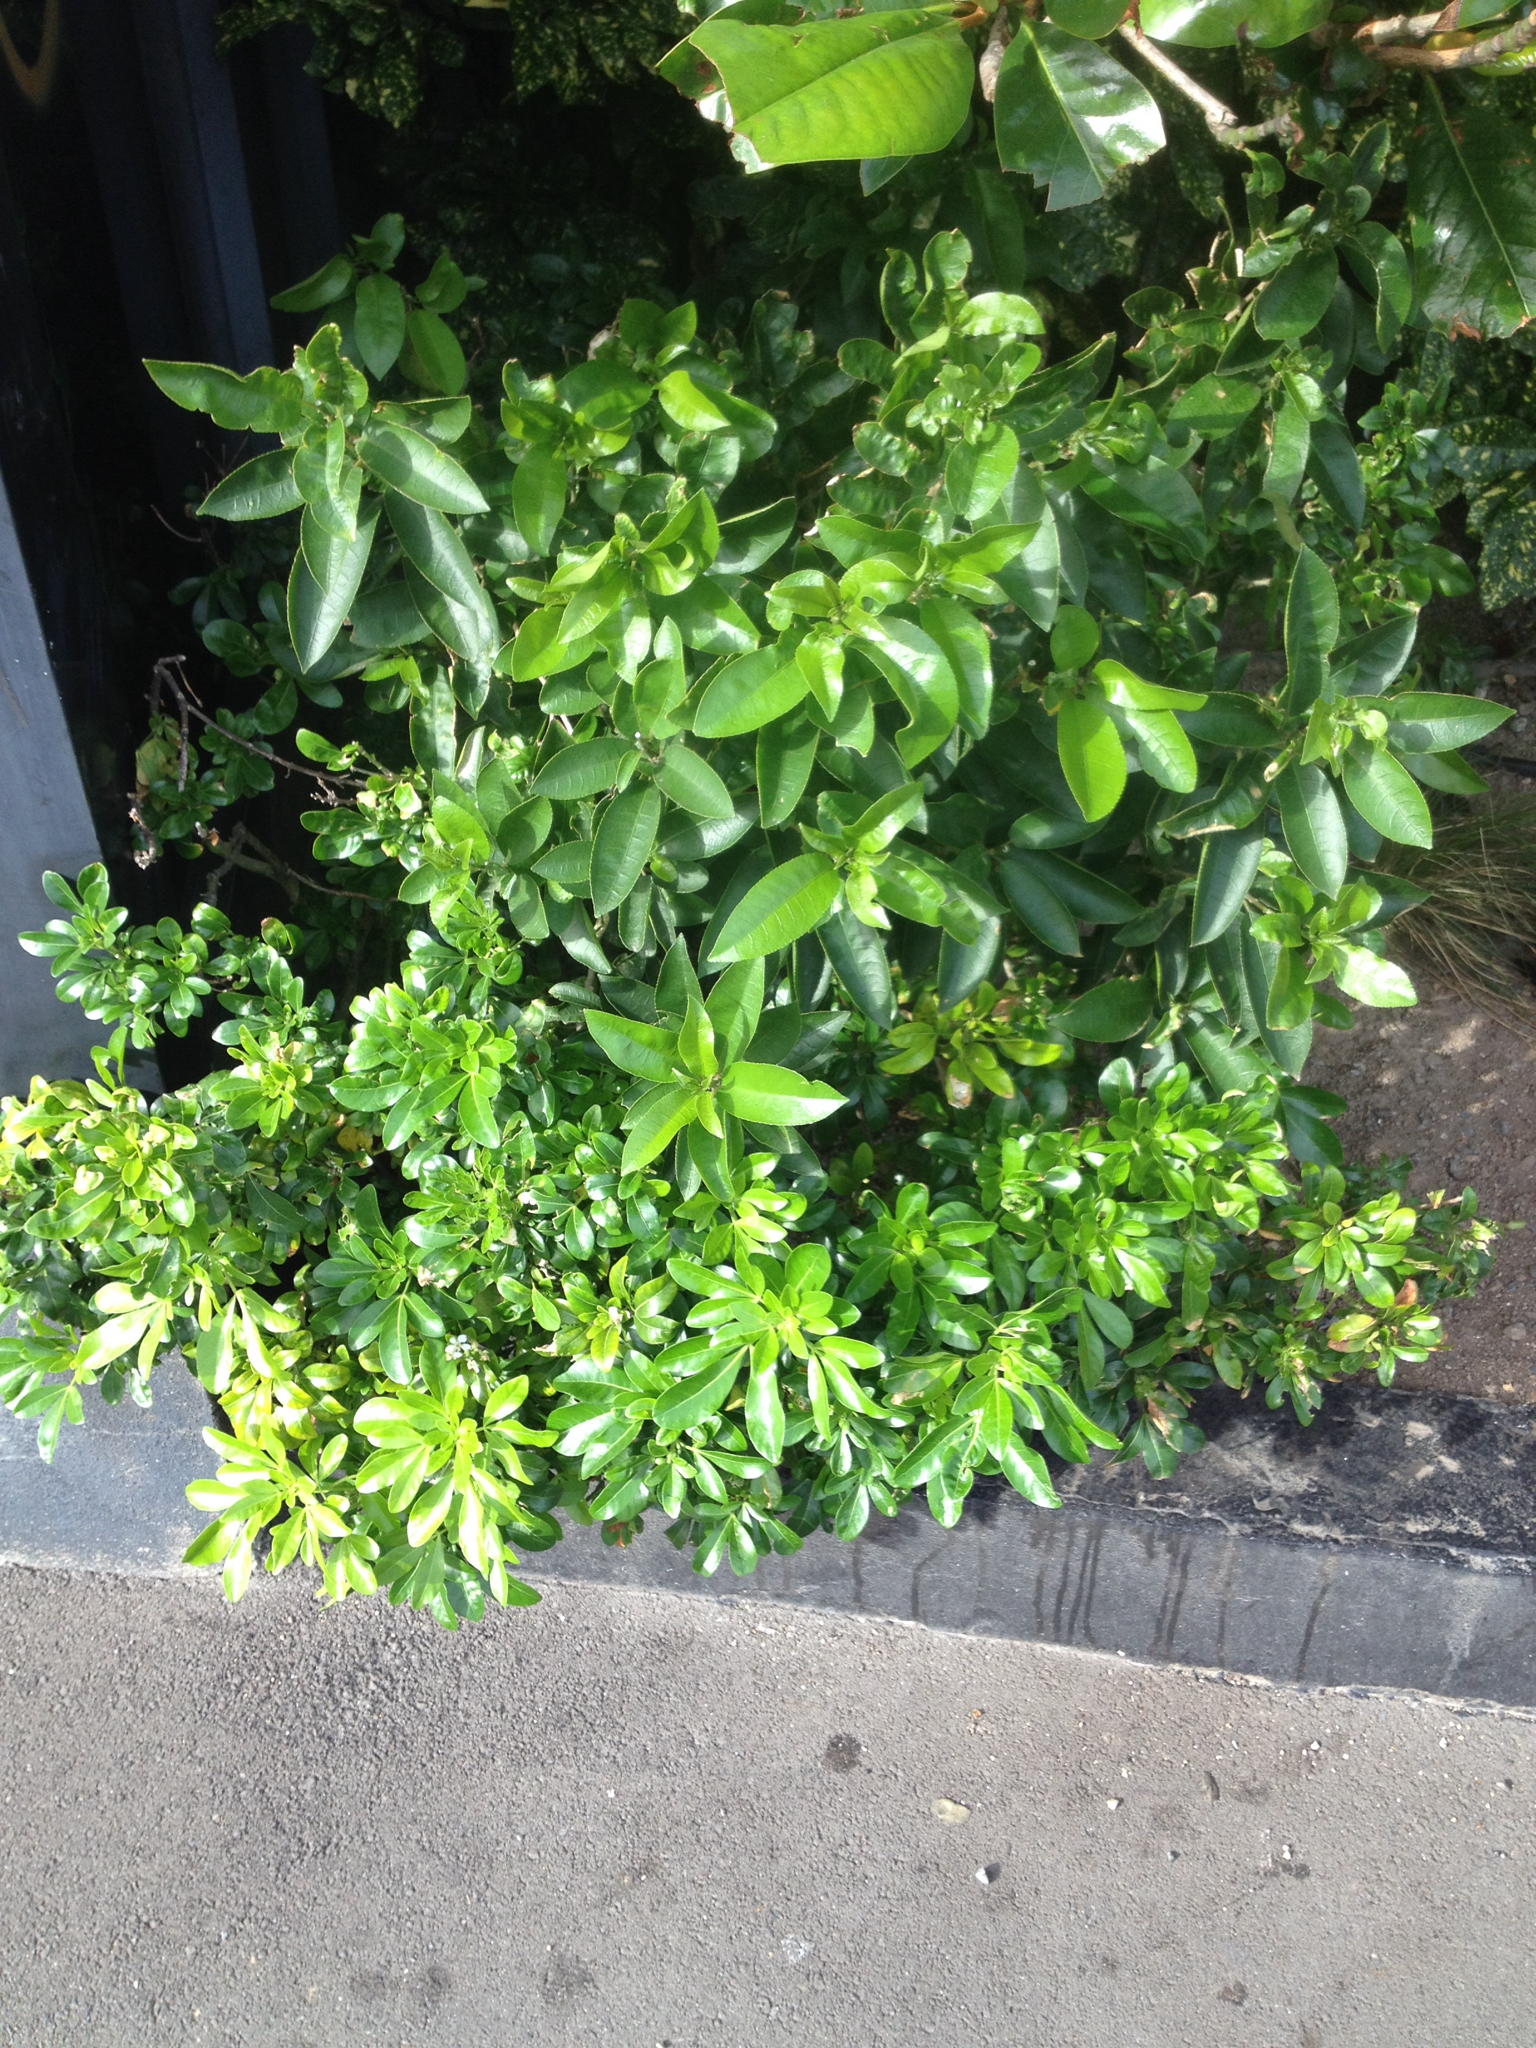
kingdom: Plantae
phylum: Tracheophyta
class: Magnoliopsida
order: Malpighiales
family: Violaceae
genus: Melicytus
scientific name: Melicytus ramiflorus
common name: Mahoe
